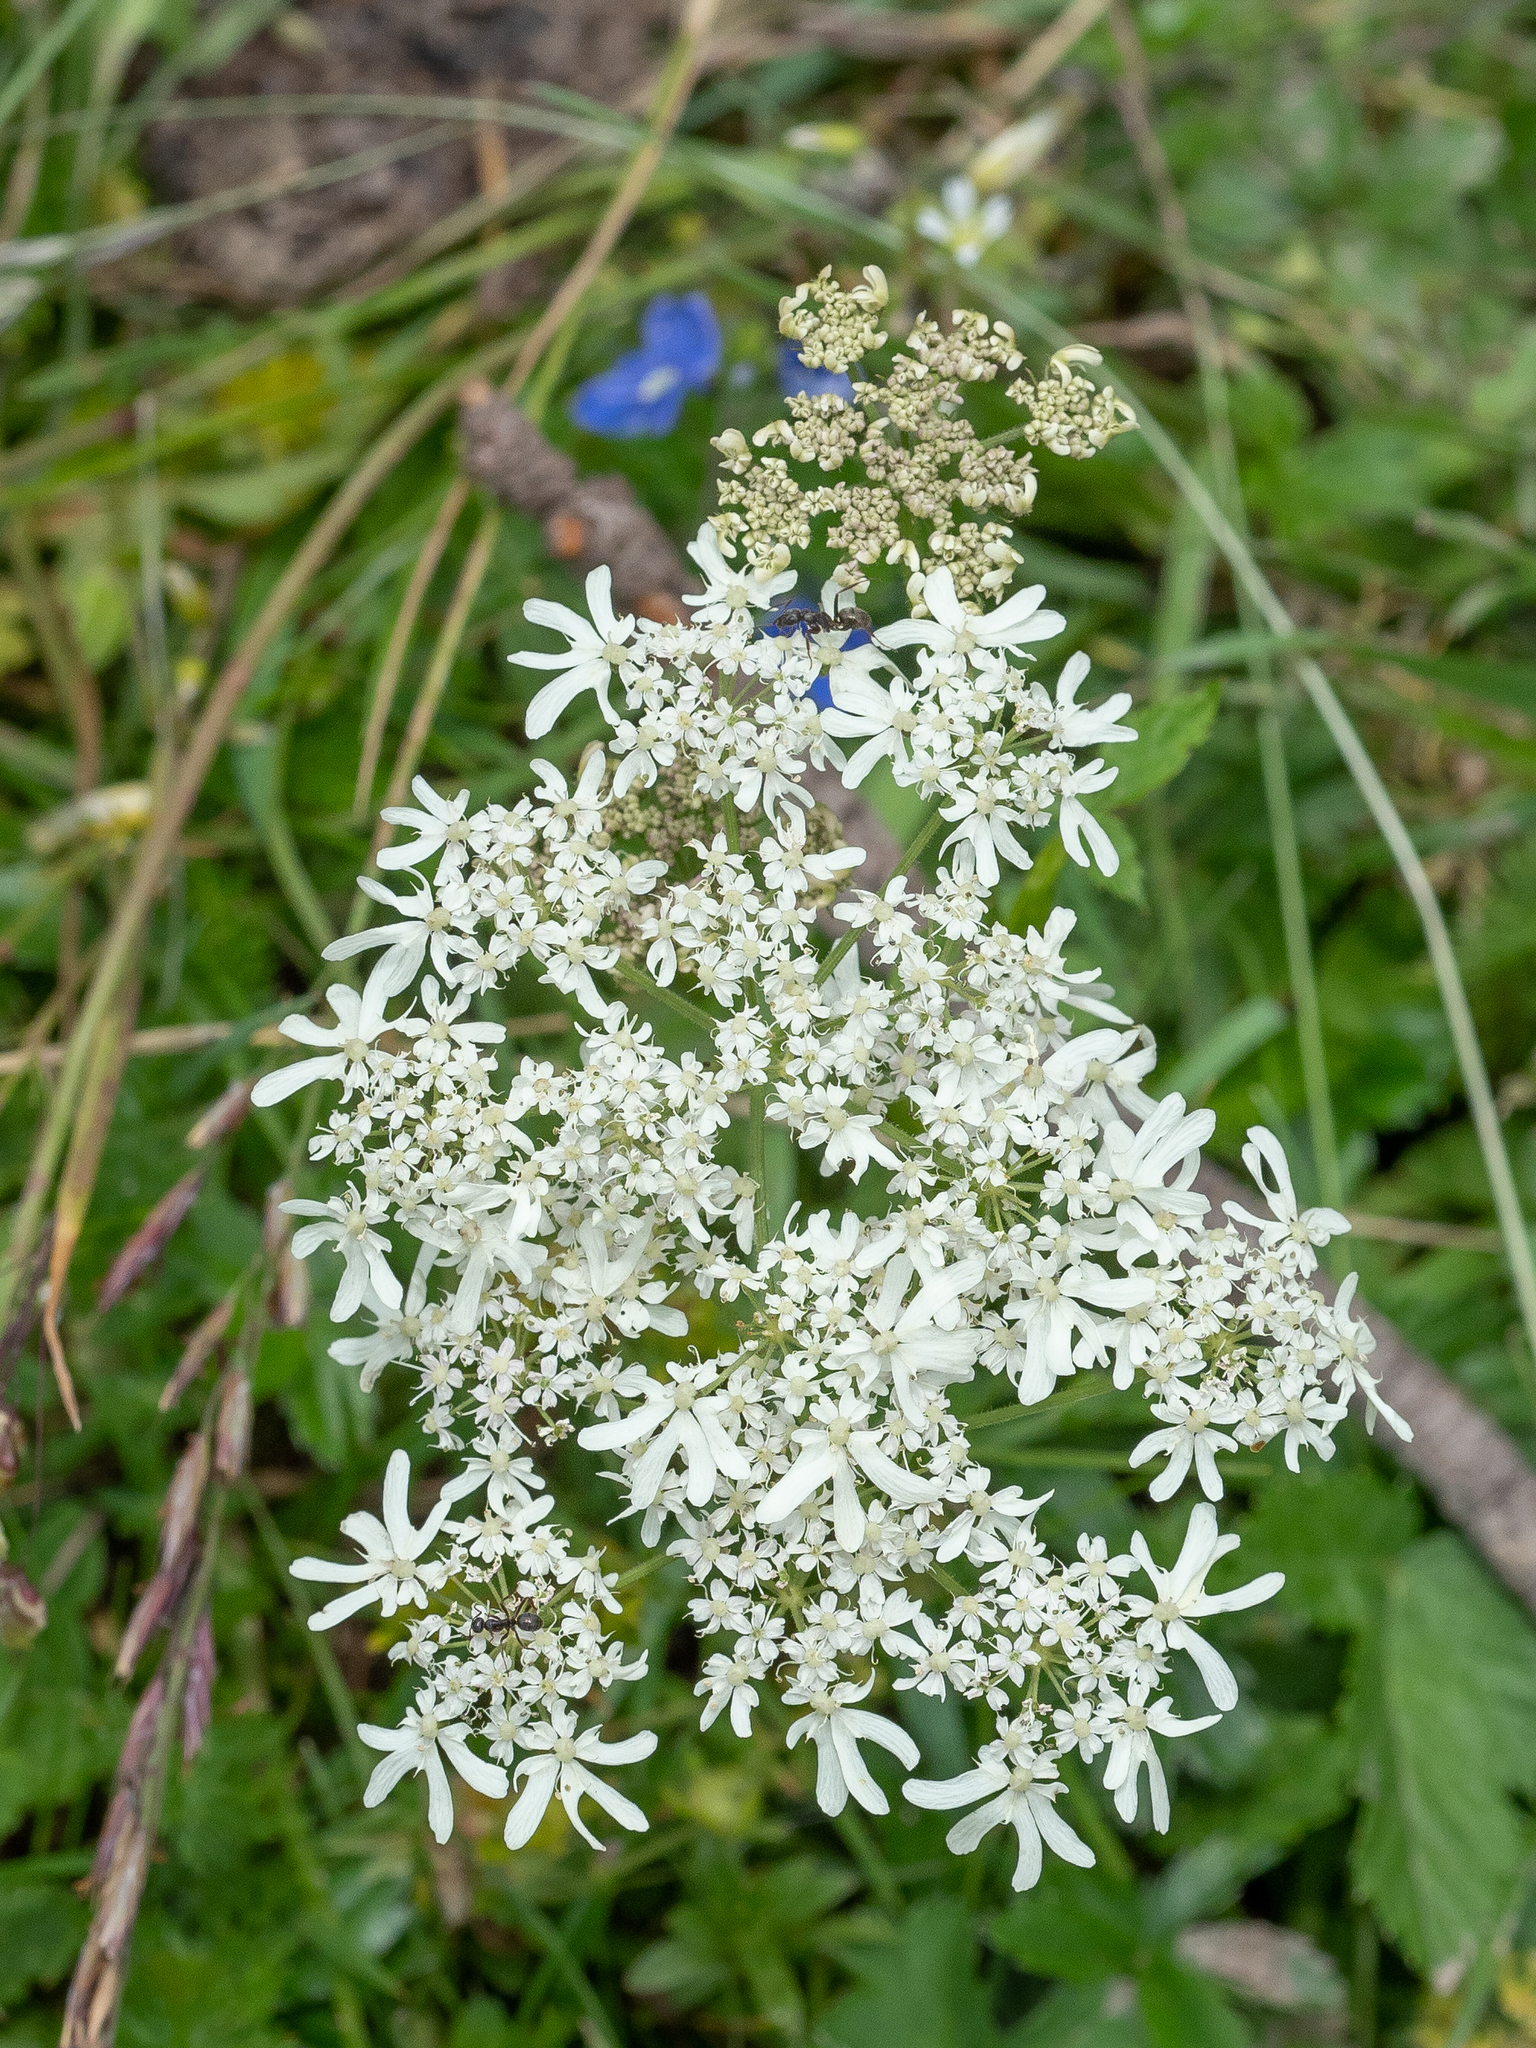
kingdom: Plantae
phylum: Tracheophyta
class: Magnoliopsida
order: Apiales
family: Apiaceae
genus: Heracleum
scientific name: Heracleum austriacum
